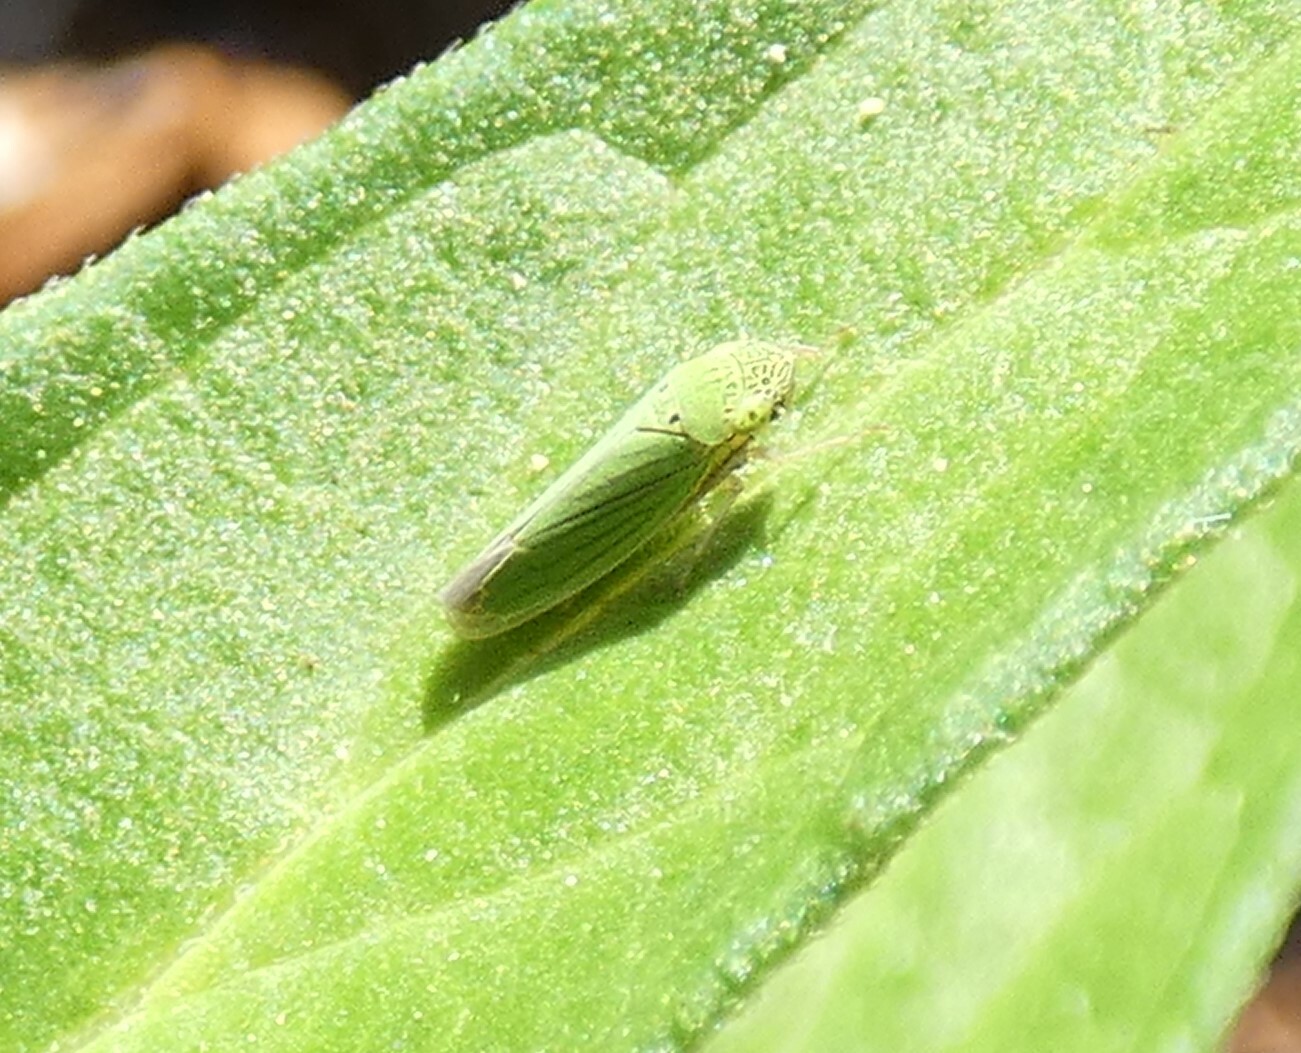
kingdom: Animalia
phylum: Arthropoda
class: Insecta
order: Hemiptera
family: Cicadellidae
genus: Hortensia
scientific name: Hortensia similis
